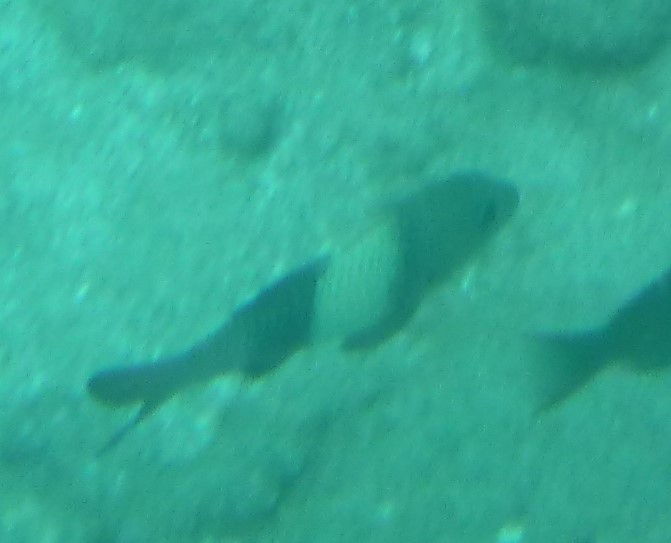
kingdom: Animalia
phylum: Chordata
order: Perciformes
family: Mullidae
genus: Parupeneus
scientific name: Parupeneus insularis
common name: Doublebar goatfish
